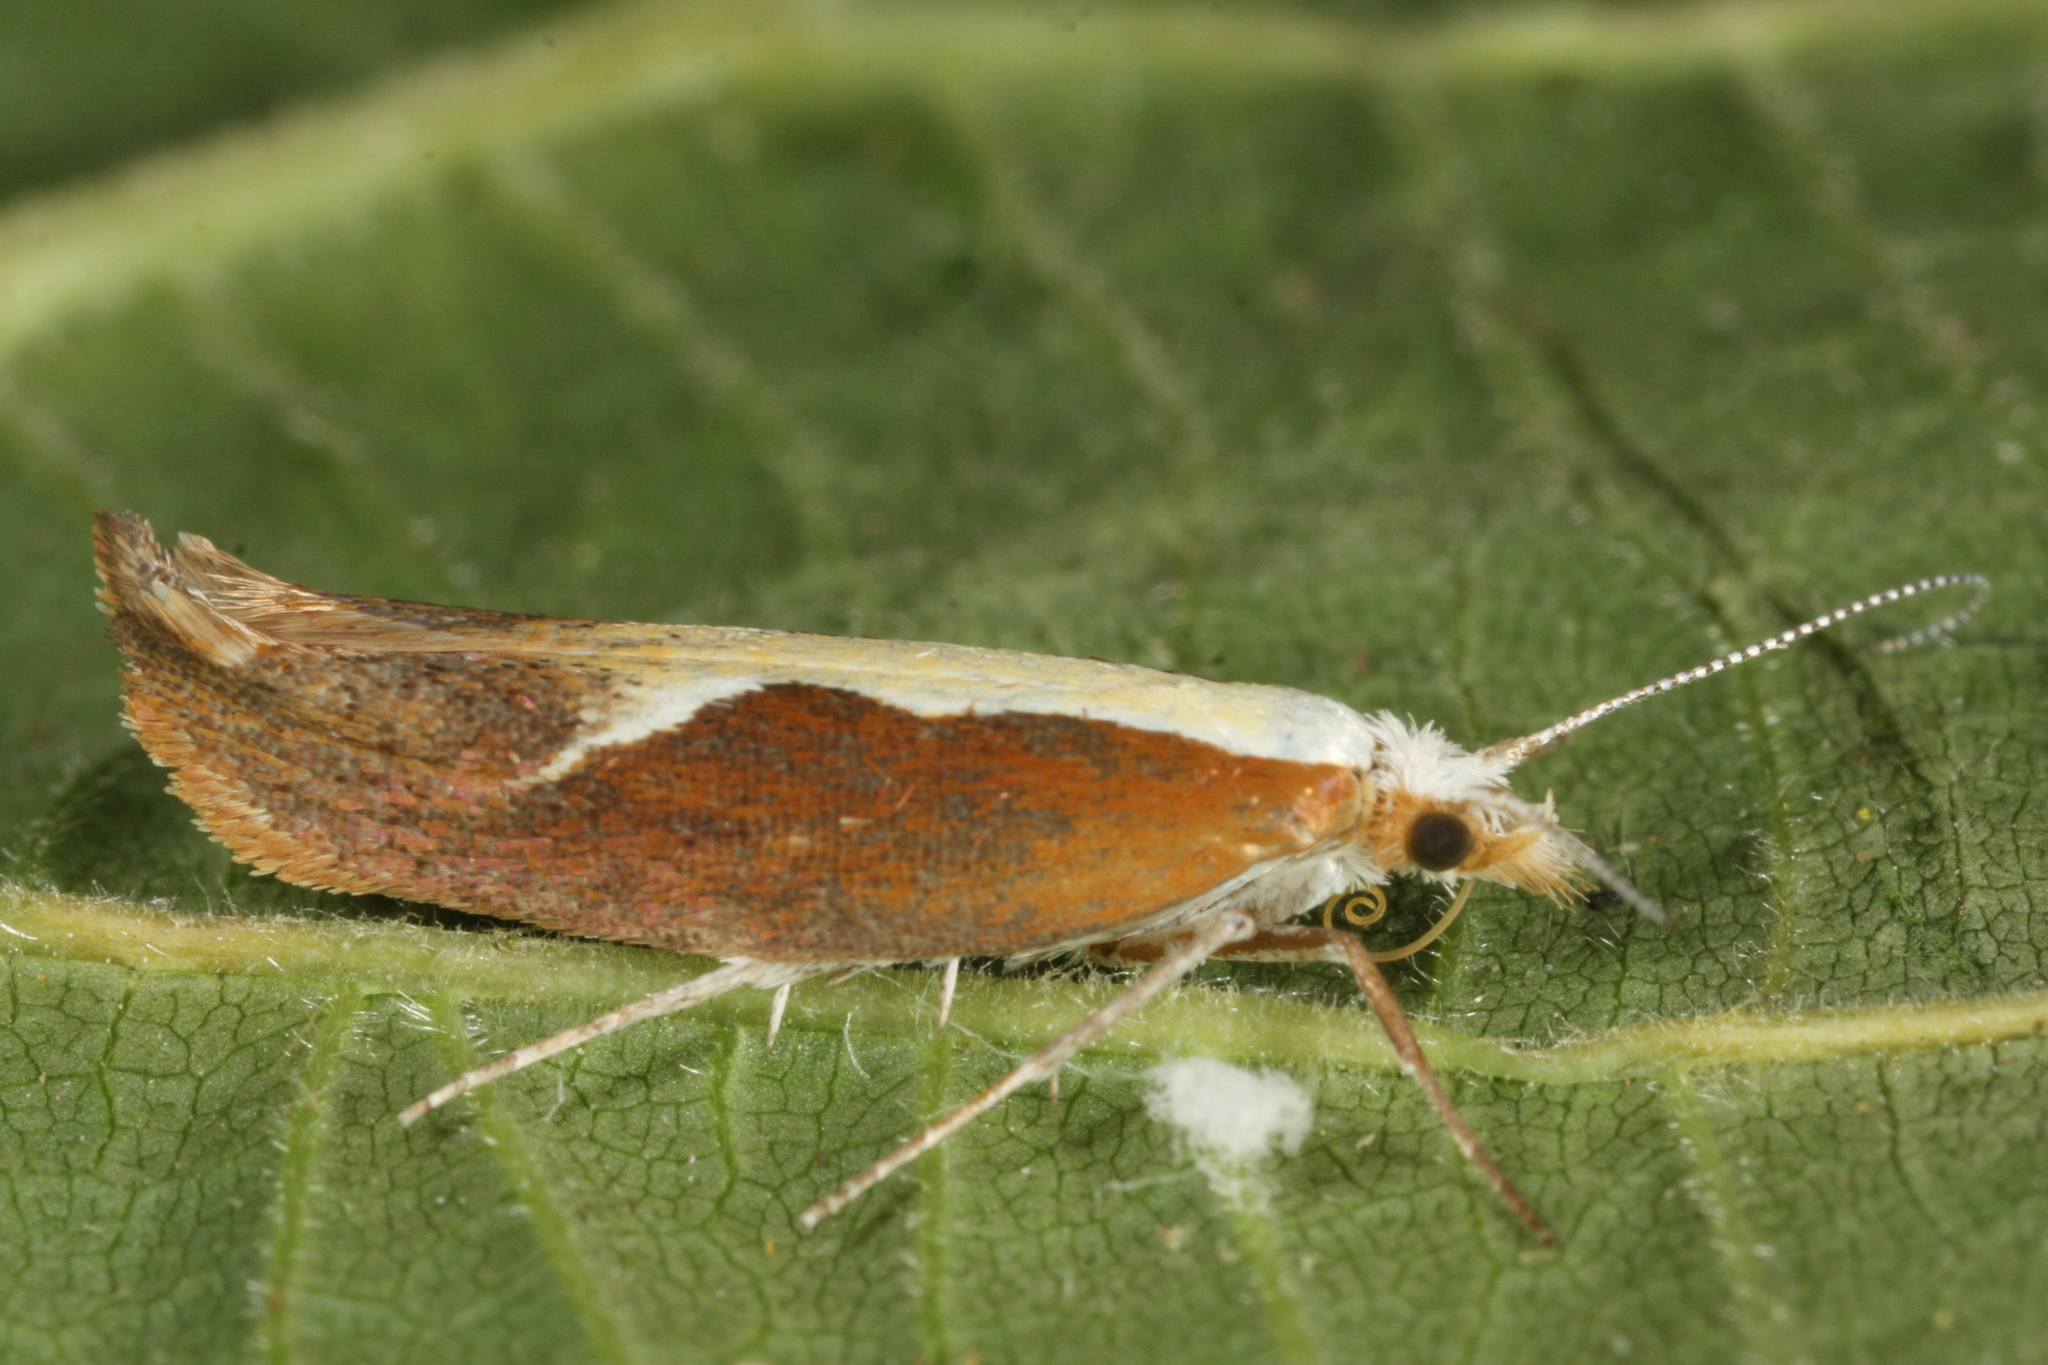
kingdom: Animalia
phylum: Arthropoda
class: Insecta
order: Lepidoptera
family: Ypsolophidae
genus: Ypsolopha
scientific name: Ypsolopha dentella
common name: Honeysuckle moth
